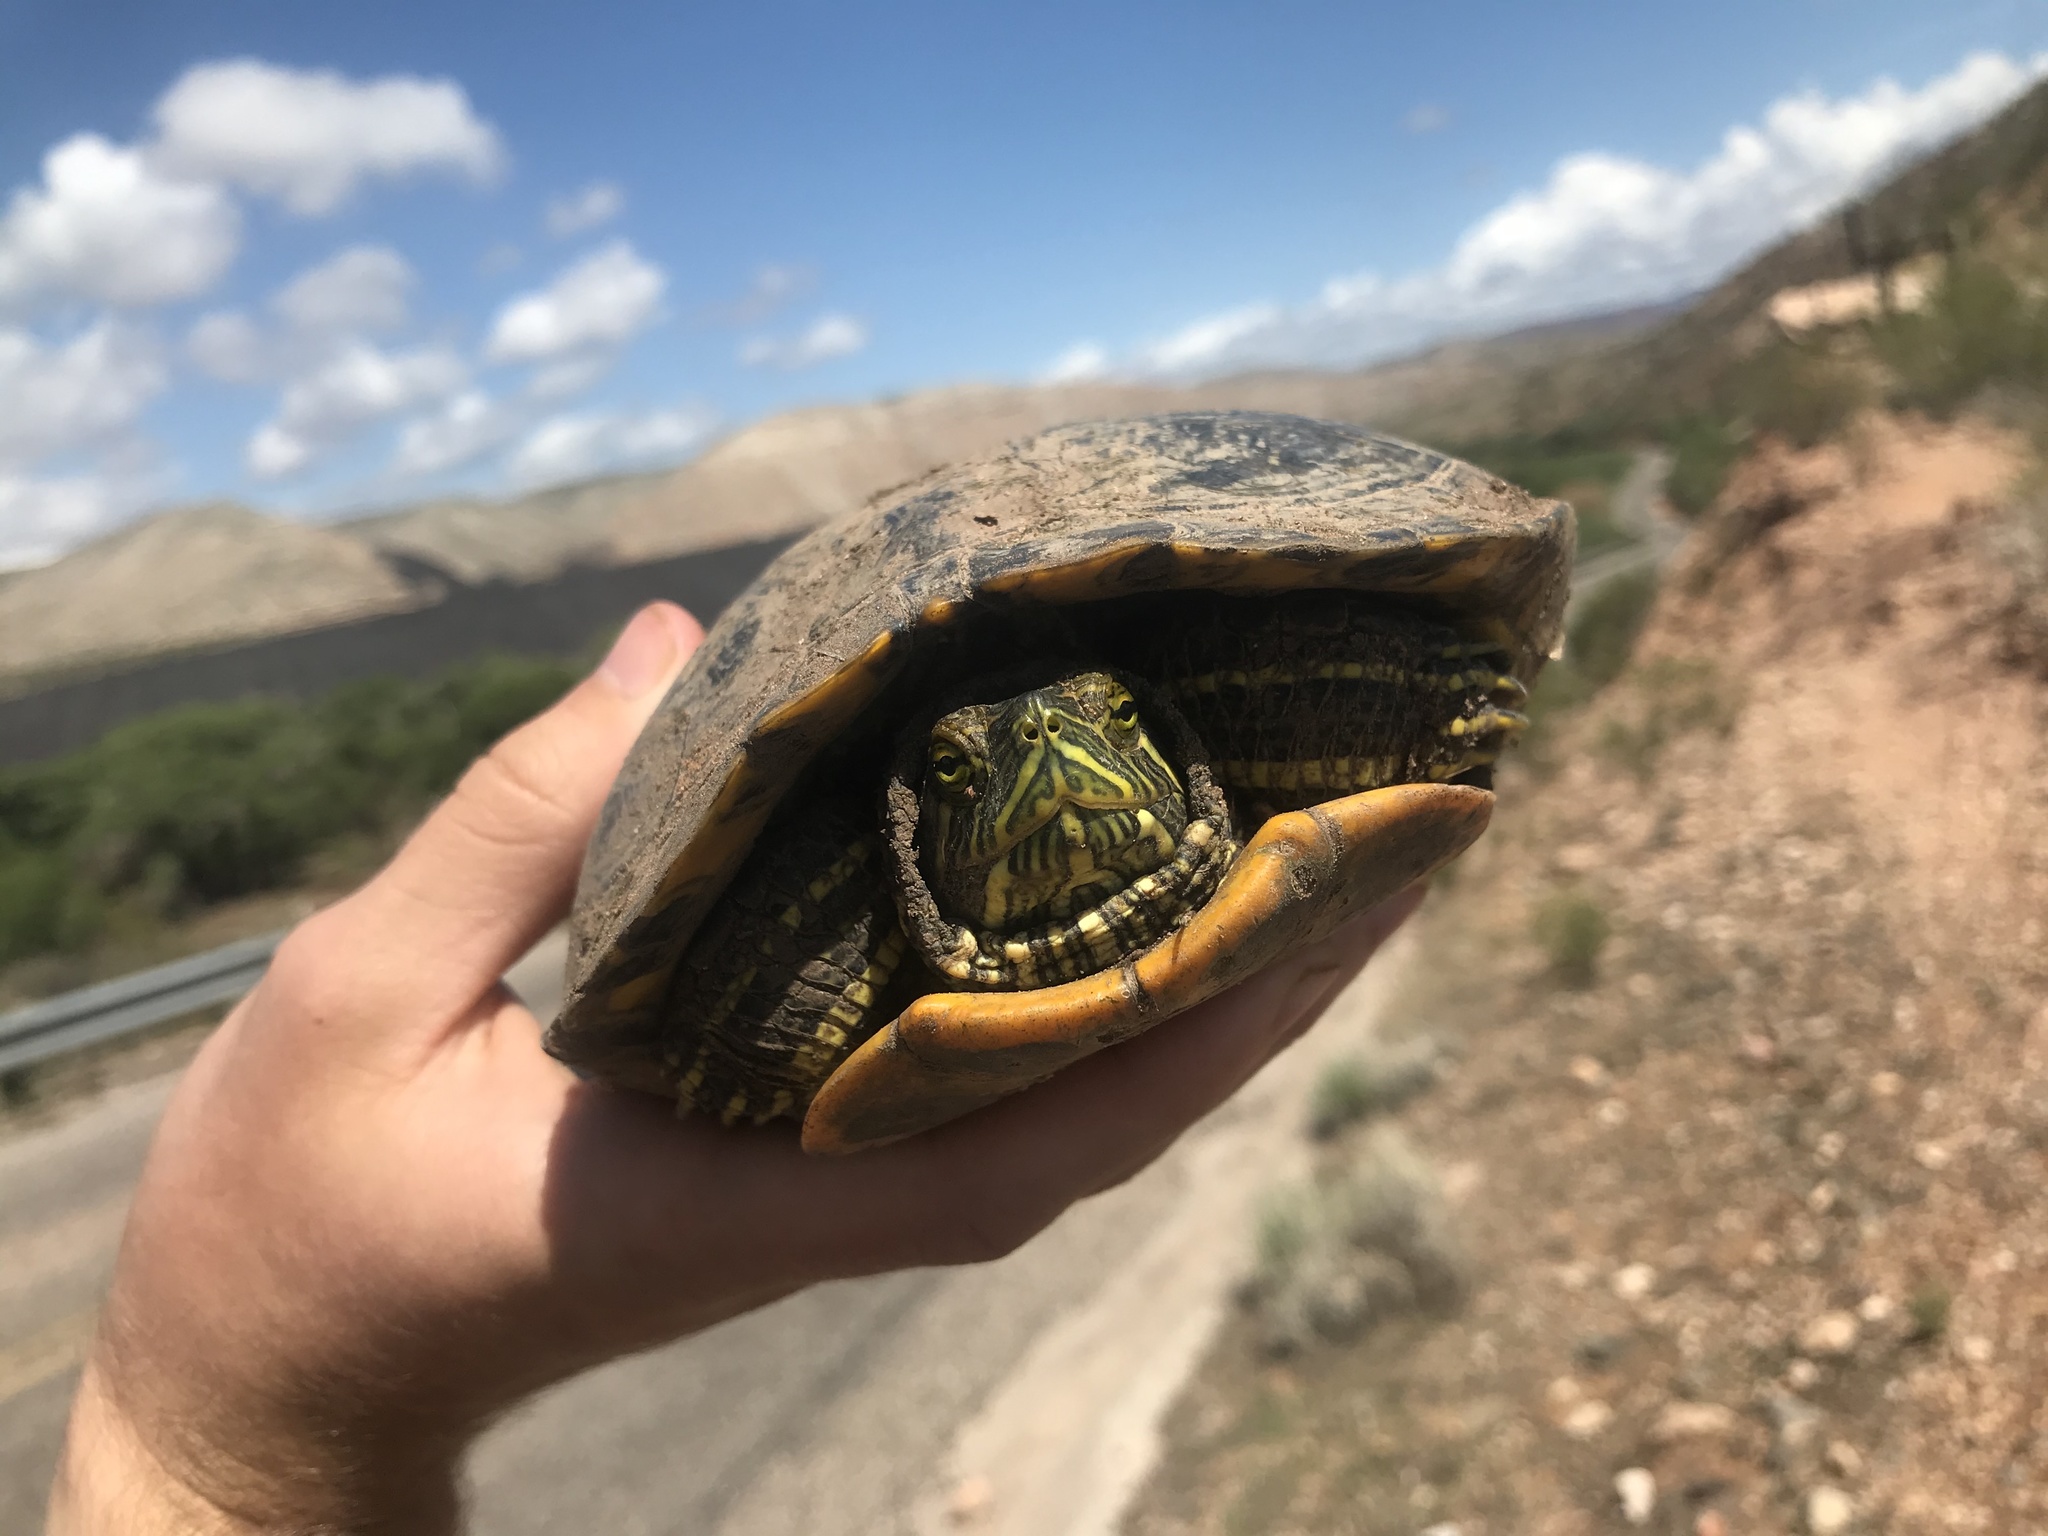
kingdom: Animalia
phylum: Chordata
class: Testudines
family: Emydidae
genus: Trachemys
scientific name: Trachemys scripta
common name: Slider
